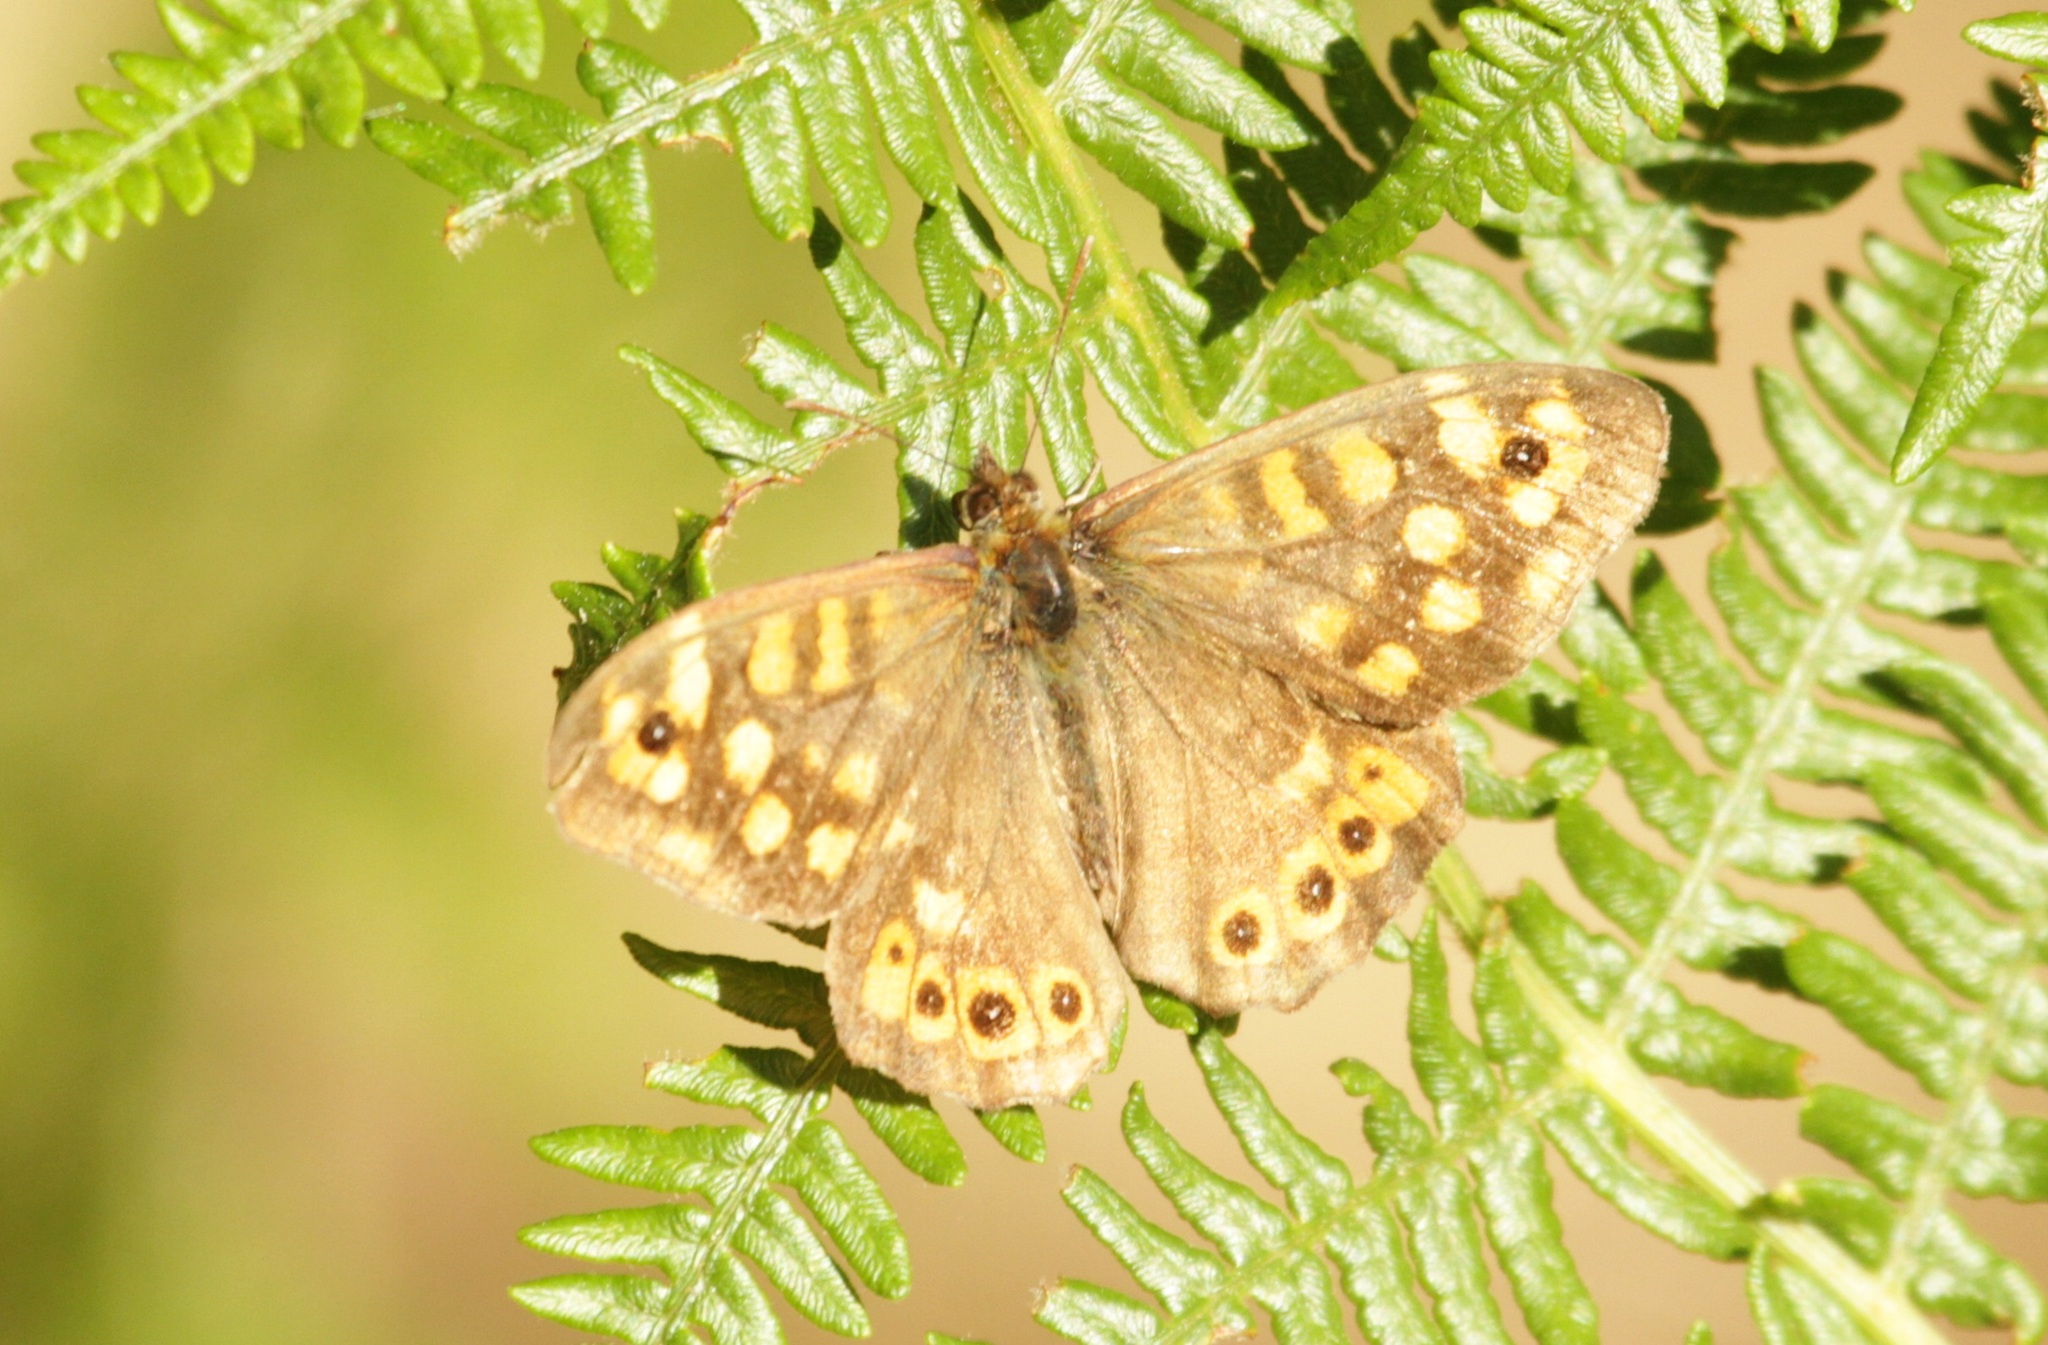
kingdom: Animalia
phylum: Arthropoda
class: Insecta
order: Lepidoptera
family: Nymphalidae
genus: Pararge
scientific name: Pararge aegeria
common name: Speckled wood
